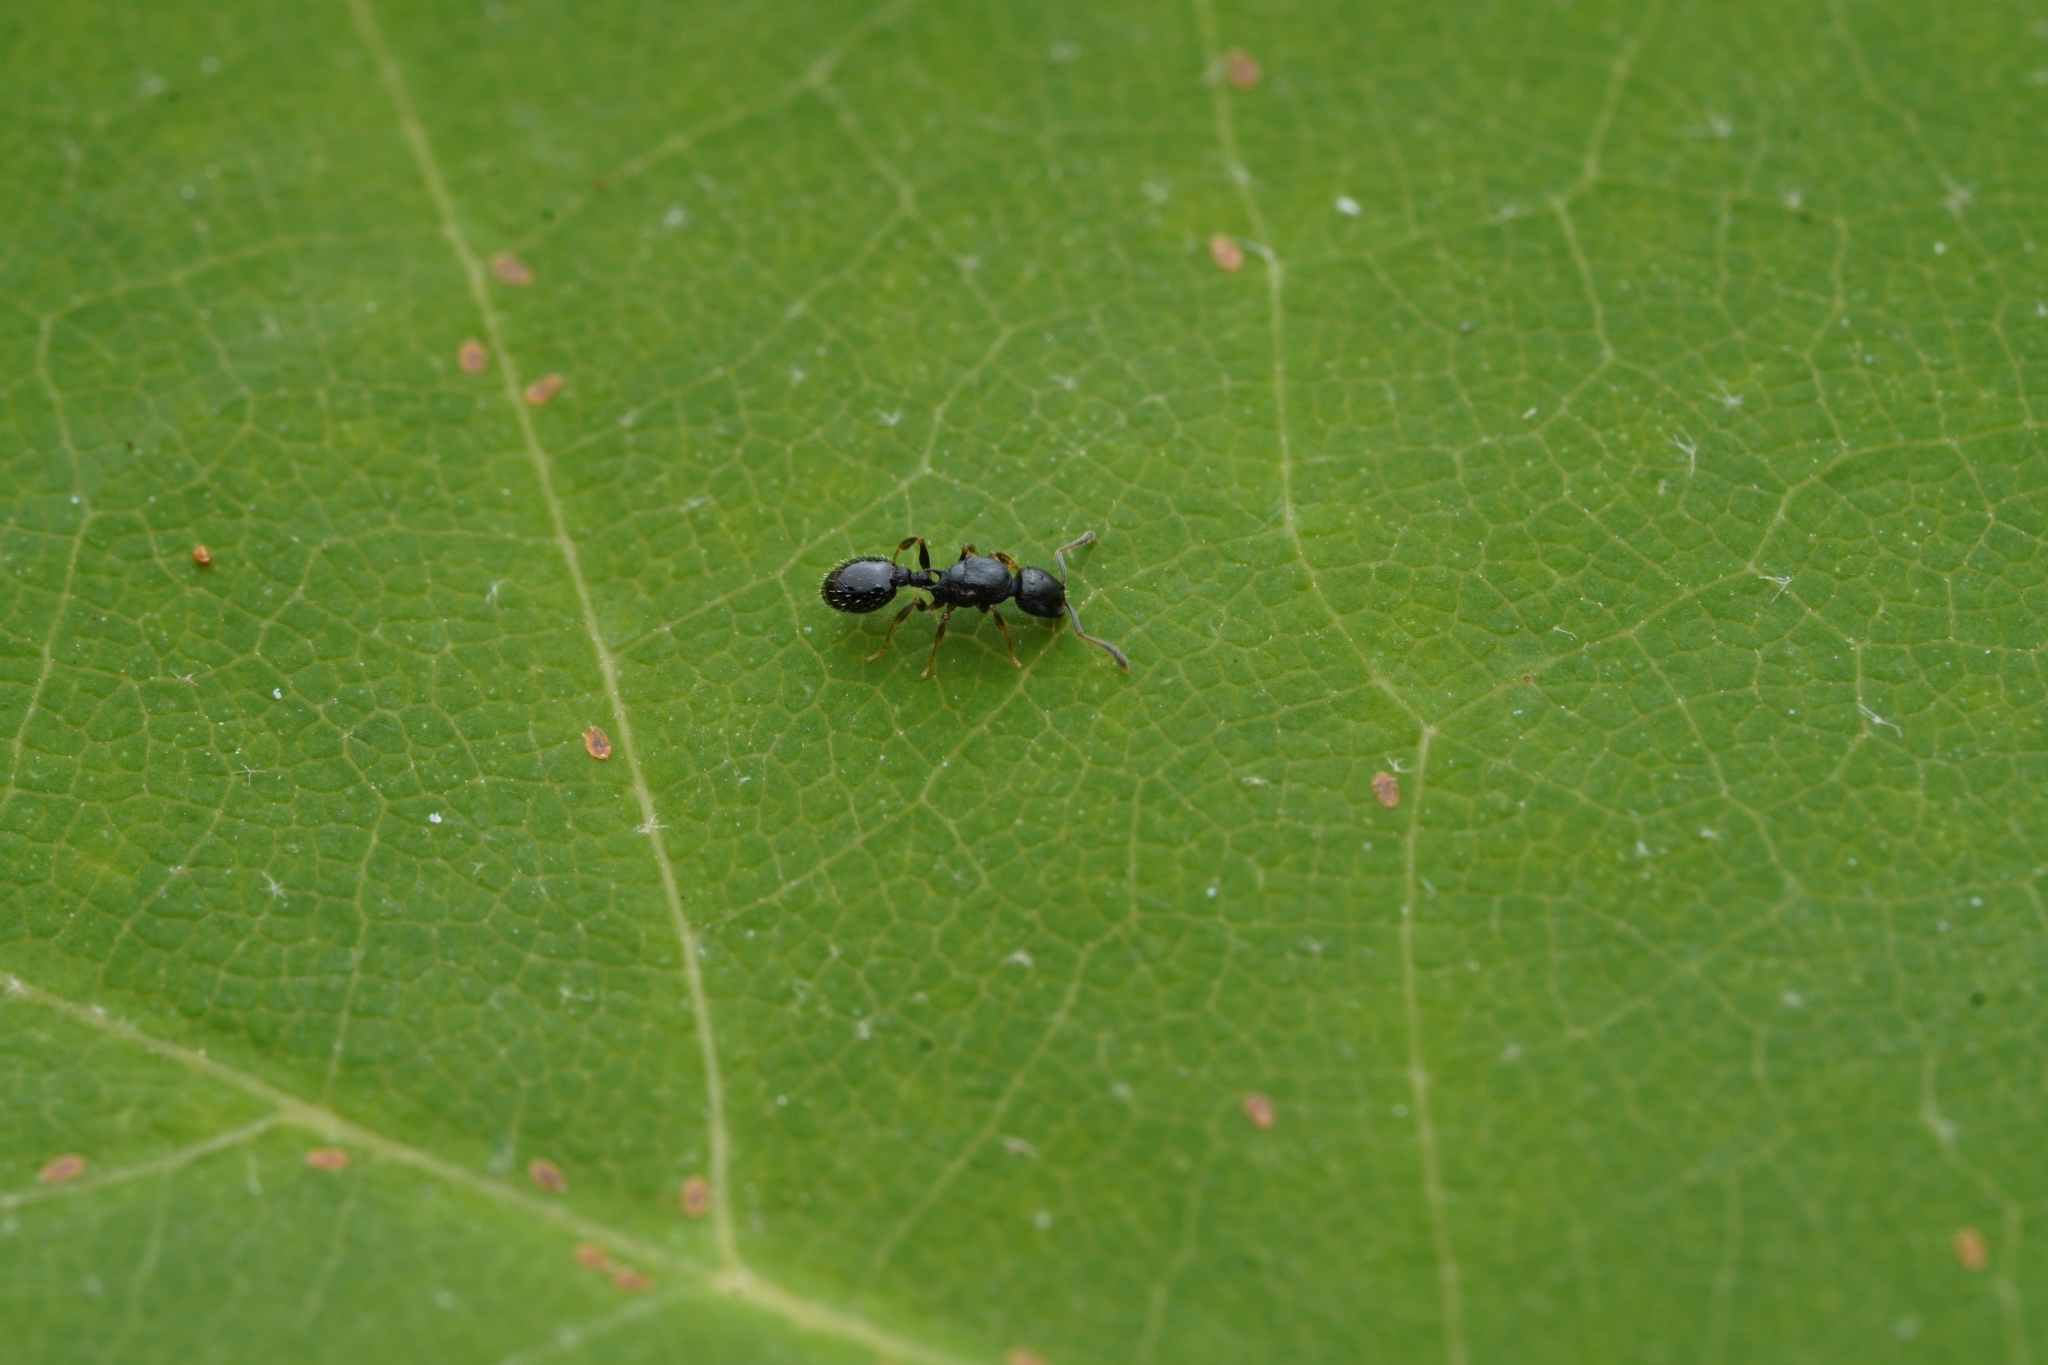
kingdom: Animalia
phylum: Arthropoda
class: Insecta
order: Hymenoptera
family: Formicidae
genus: Temnothorax
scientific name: Temnothorax longispinosus
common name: Long-spined acorn ant
